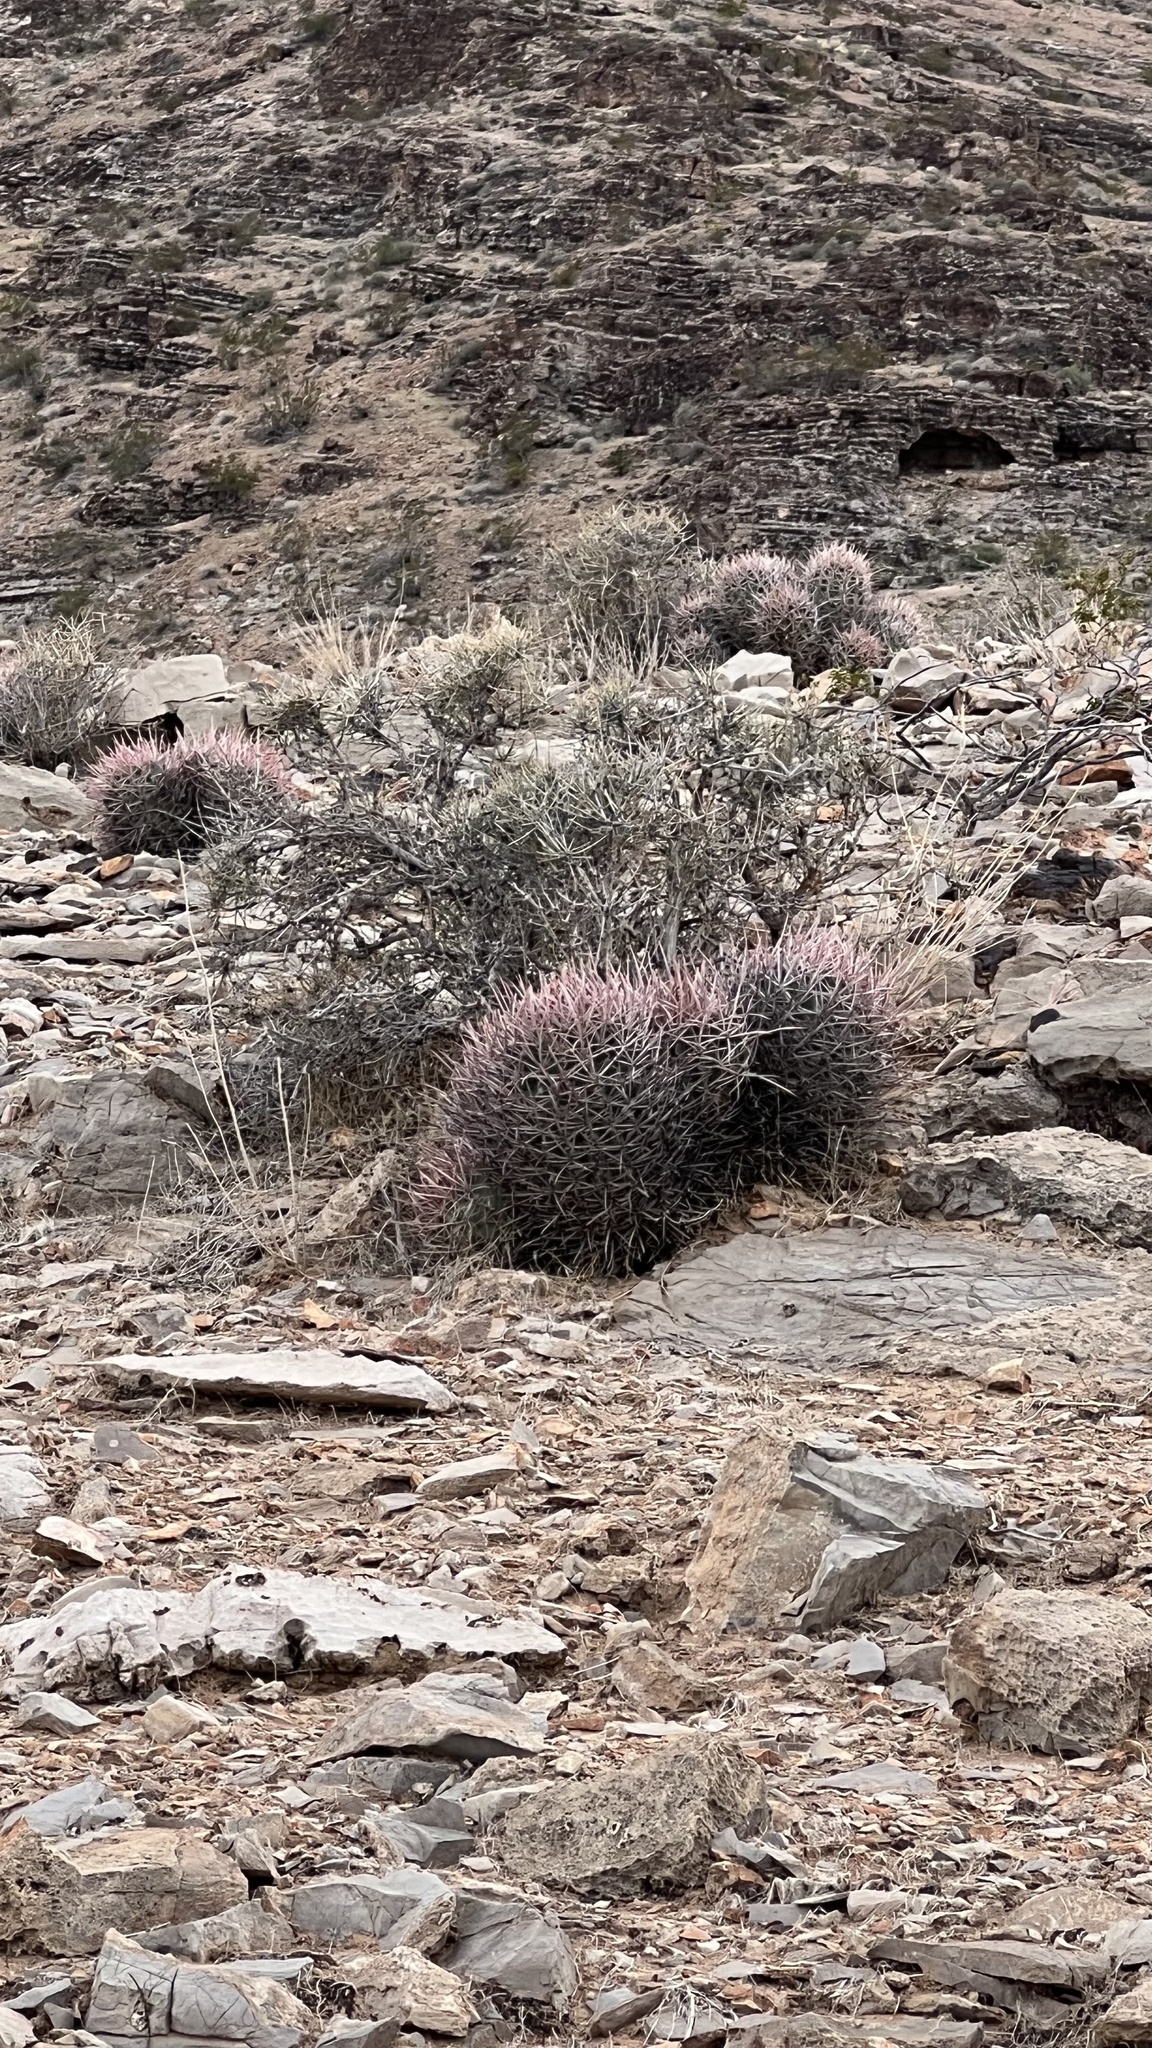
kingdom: Plantae
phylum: Tracheophyta
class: Magnoliopsida
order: Caryophyllales
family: Cactaceae
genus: Echinocactus
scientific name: Echinocactus polycephalus
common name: Cottontop cactus
